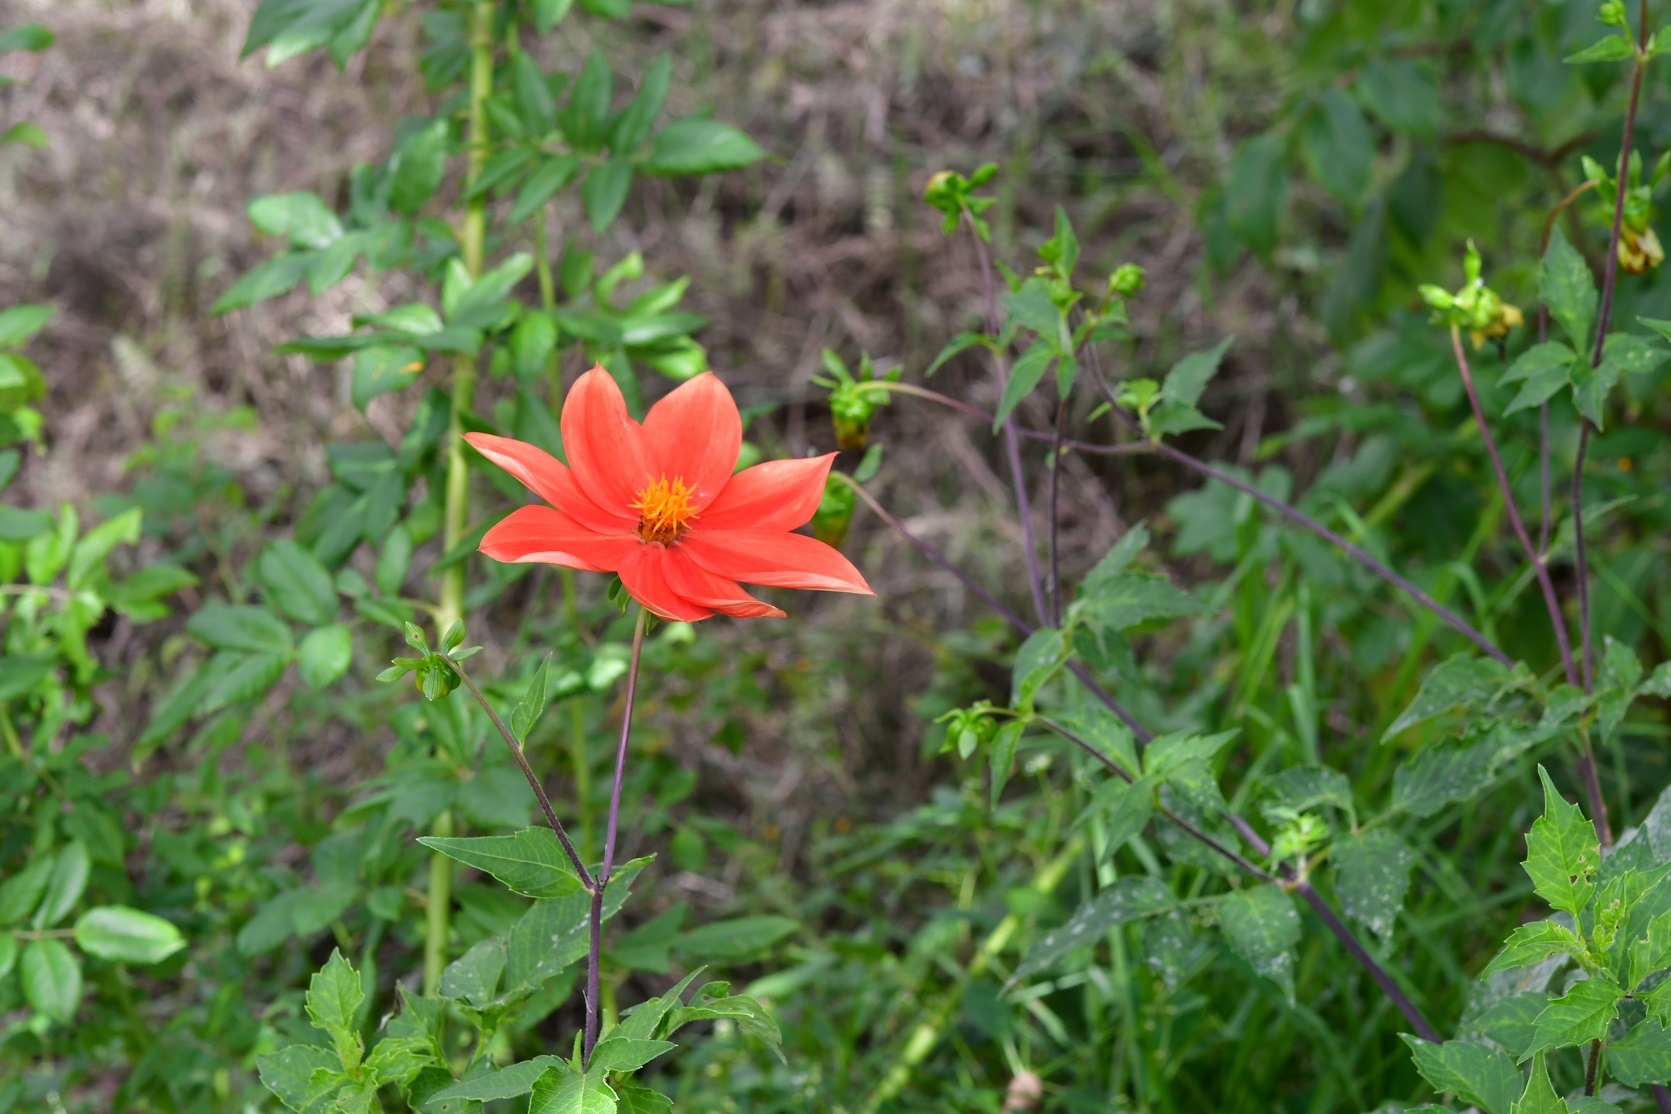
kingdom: Plantae
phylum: Tracheophyta
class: Magnoliopsida
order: Asterales
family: Asteraceae
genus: Dahlia
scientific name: Dahlia coccinea
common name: Red dahlia
